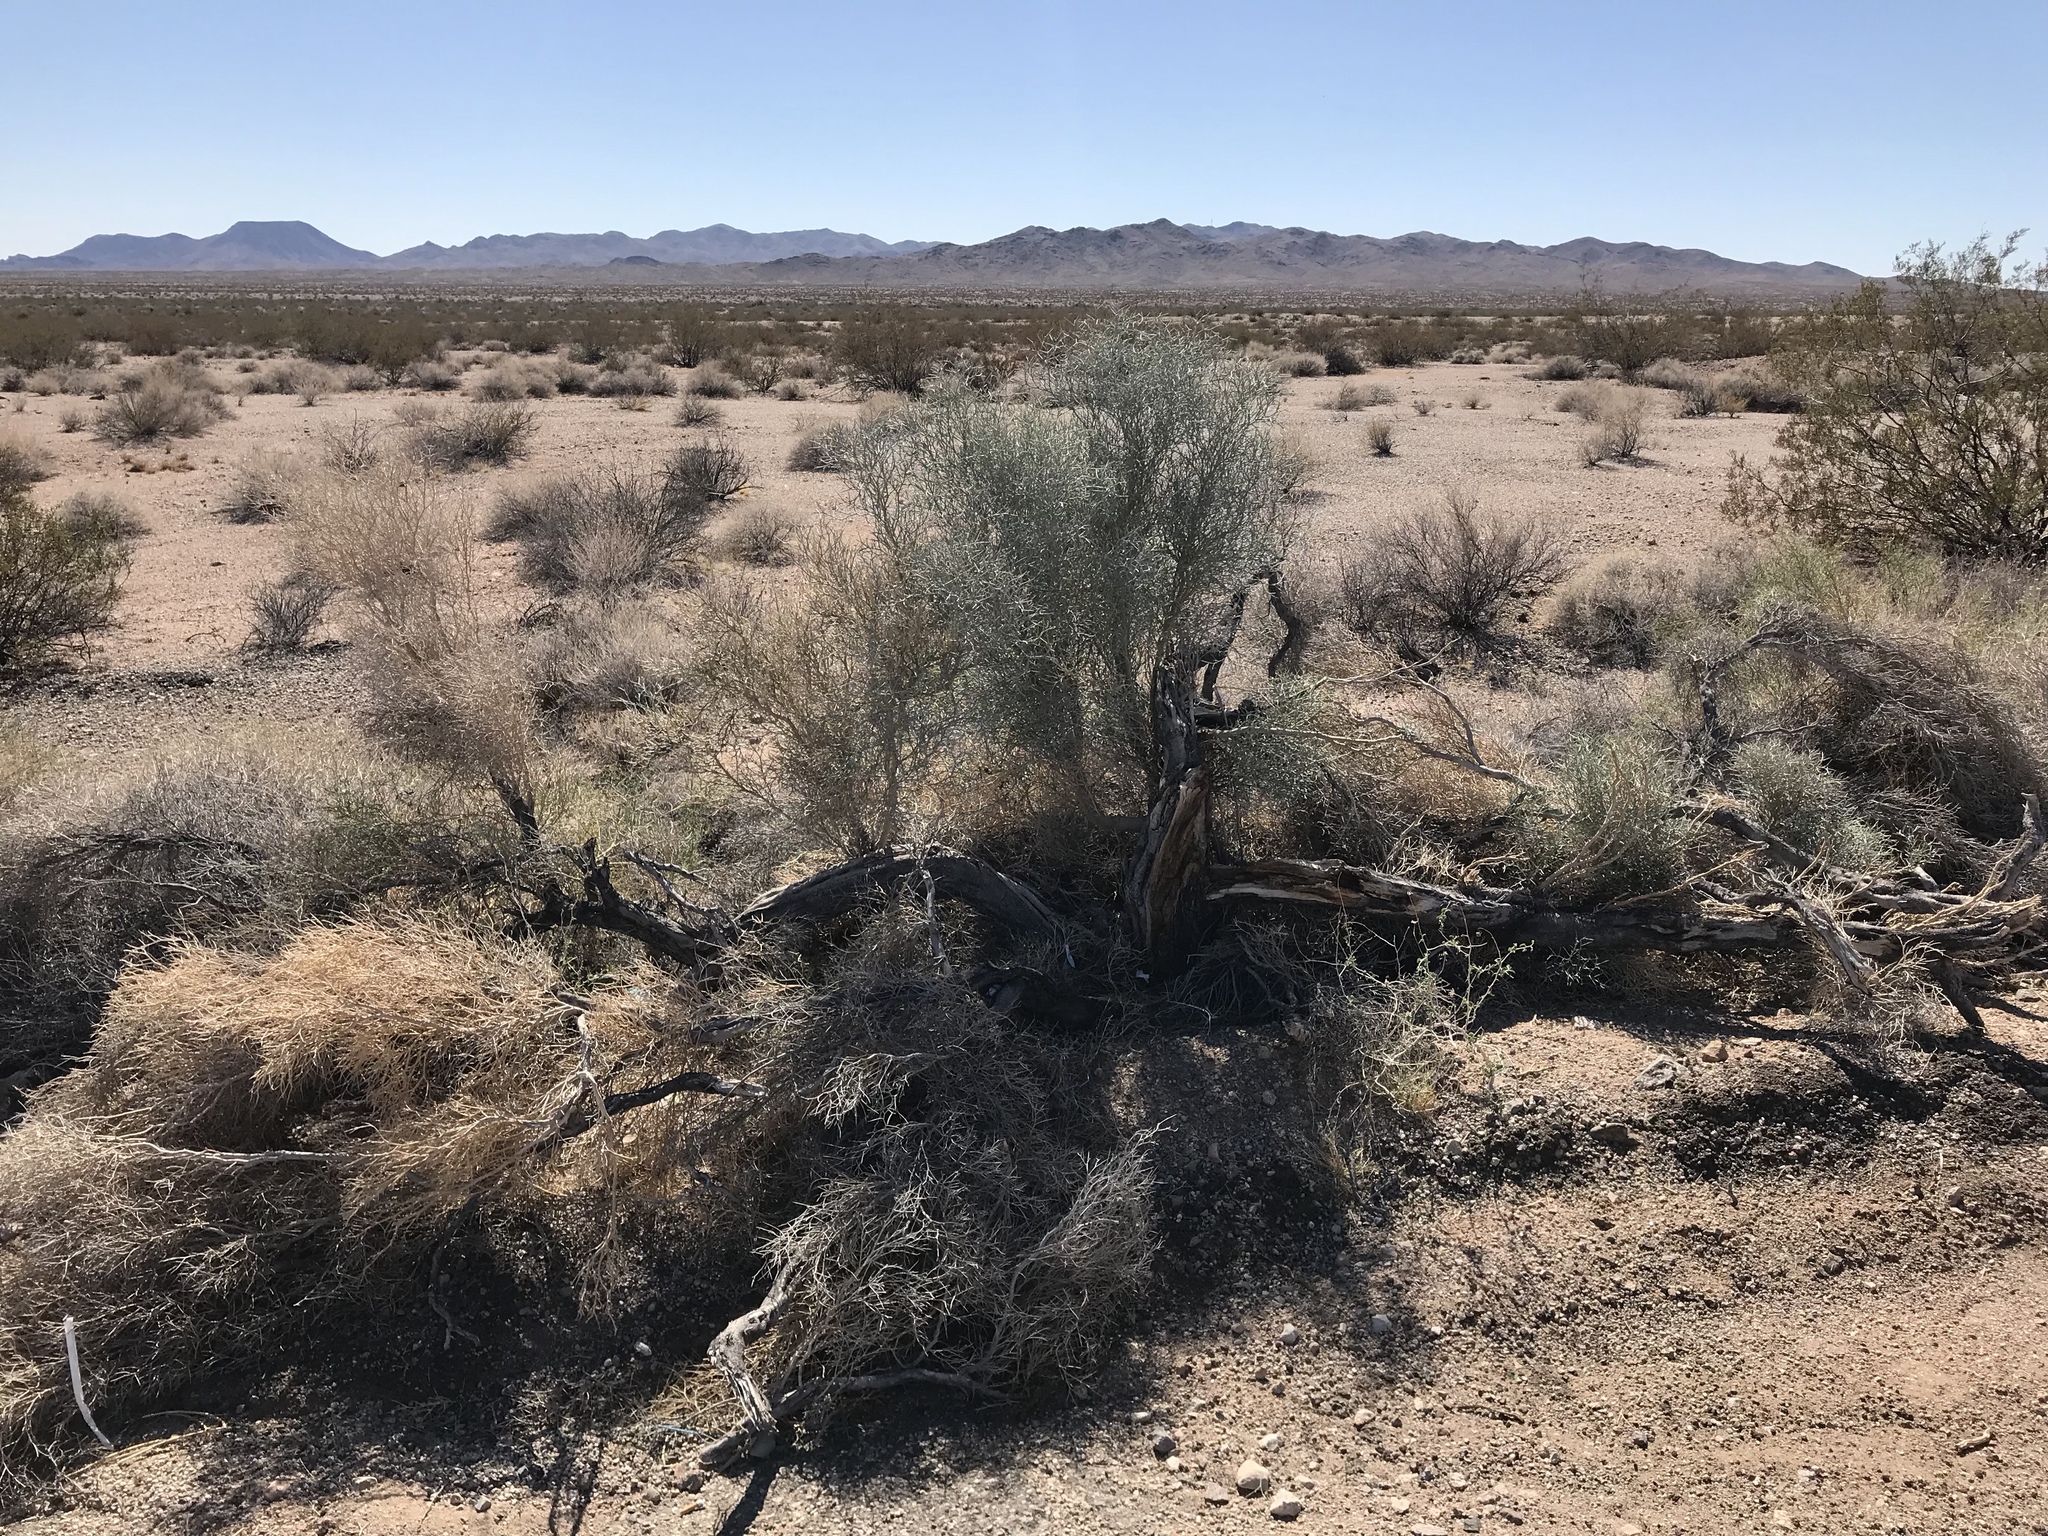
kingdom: Plantae
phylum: Tracheophyta
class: Magnoliopsida
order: Fabales
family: Fabaceae
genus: Psorothamnus
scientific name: Psorothamnus spinosus
